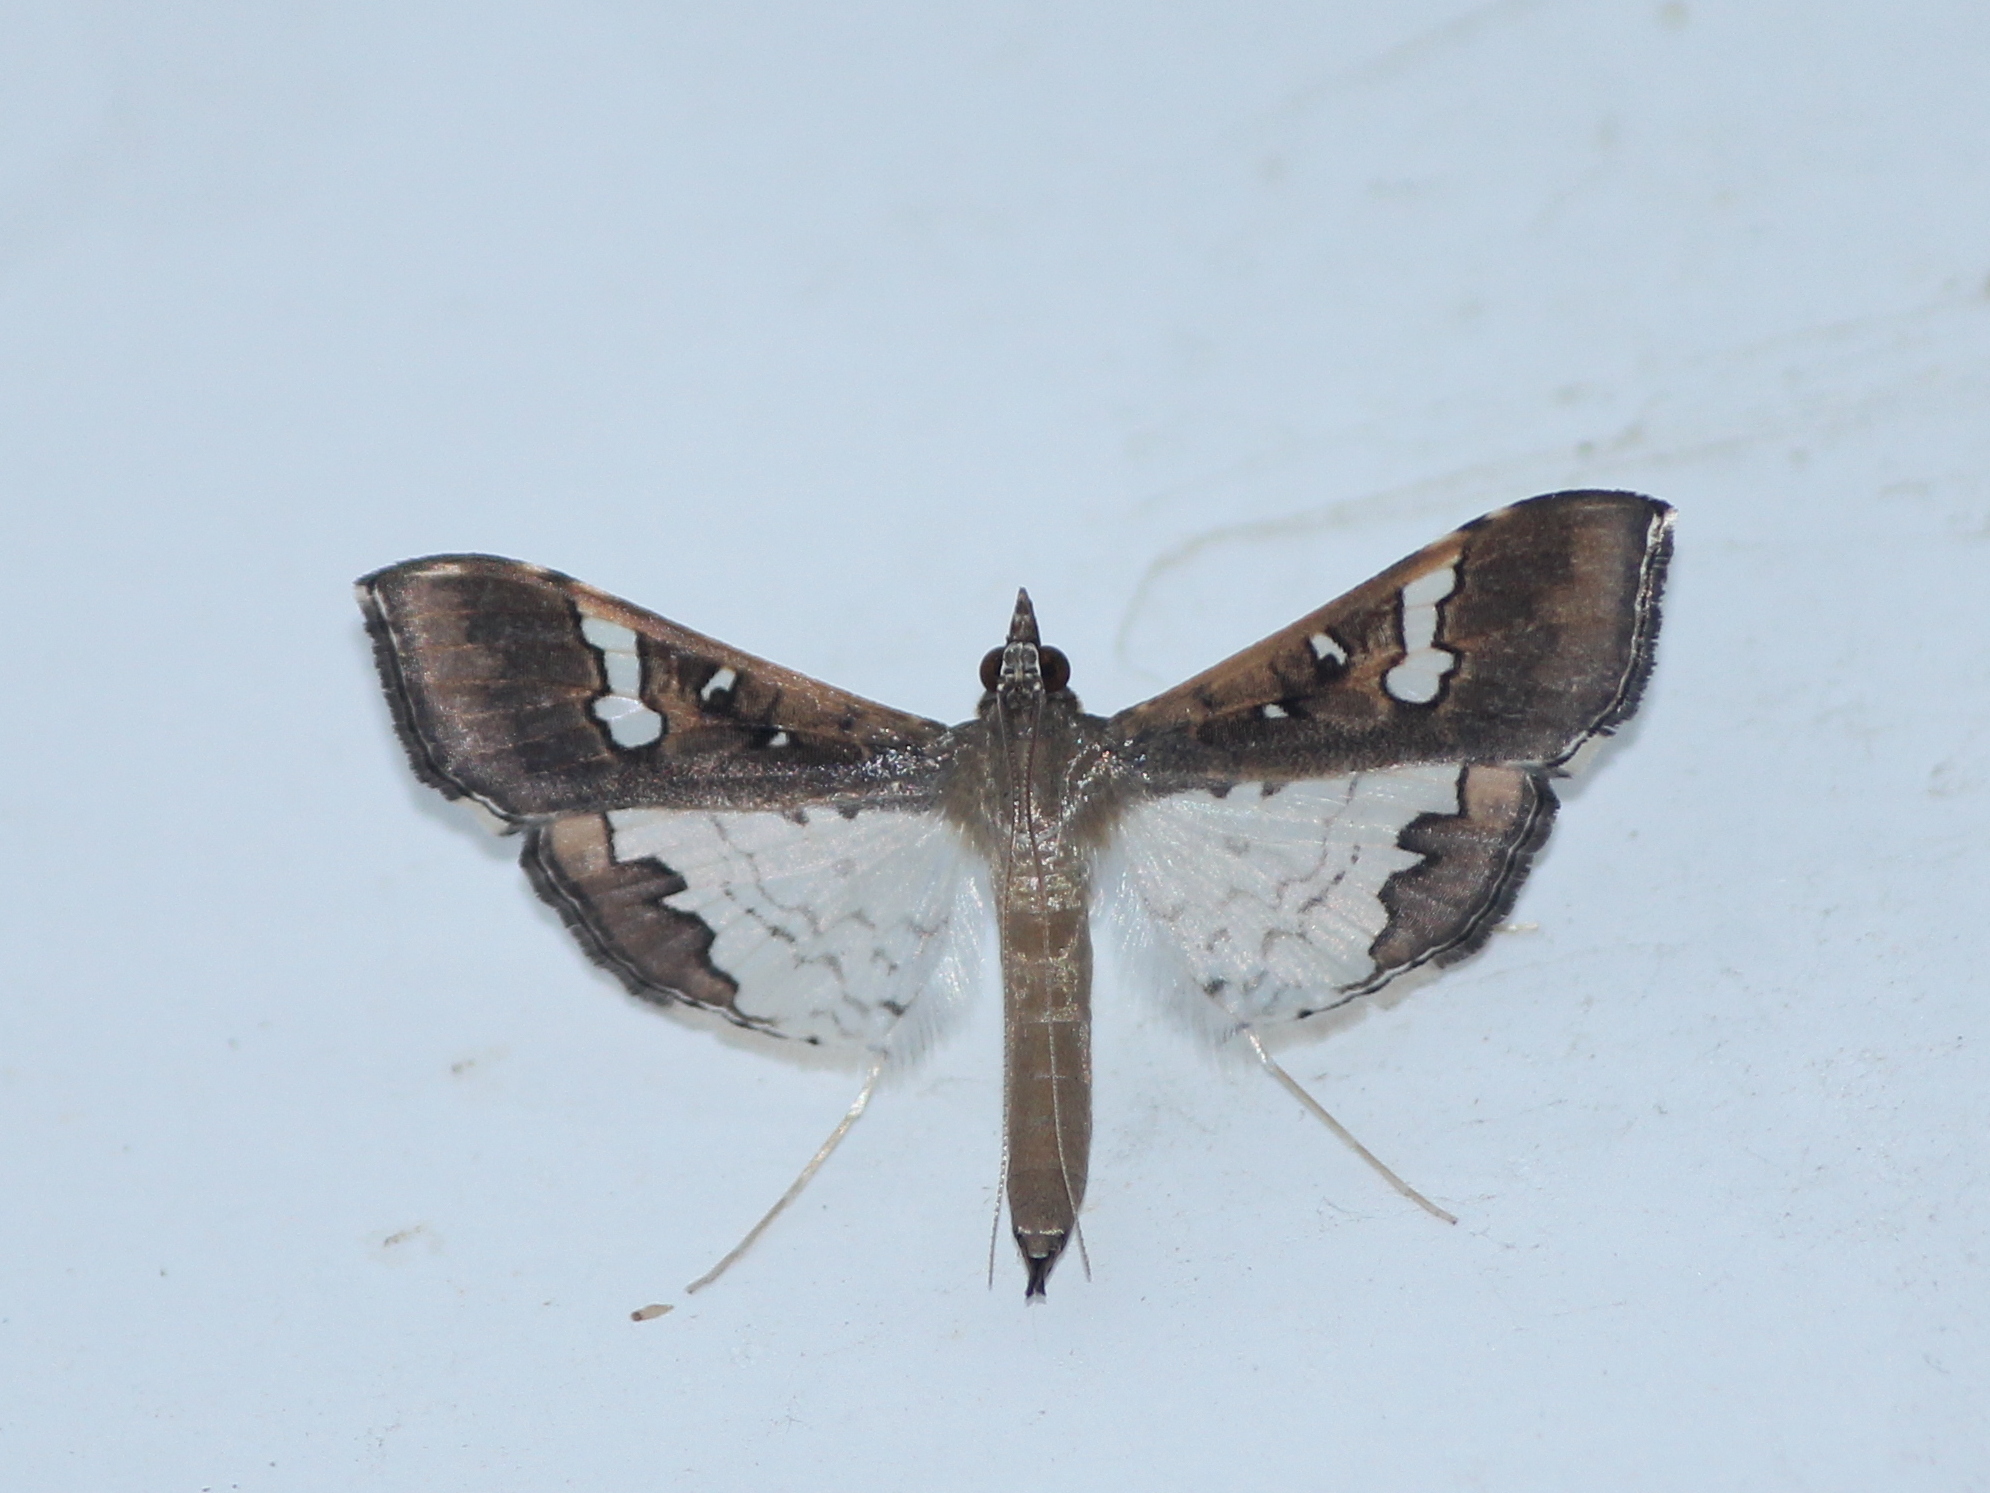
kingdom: Animalia
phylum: Arthropoda
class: Insecta
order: Lepidoptera
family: Crambidae
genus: Maruca
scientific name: Maruca vitrata
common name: Maruca pod borer
